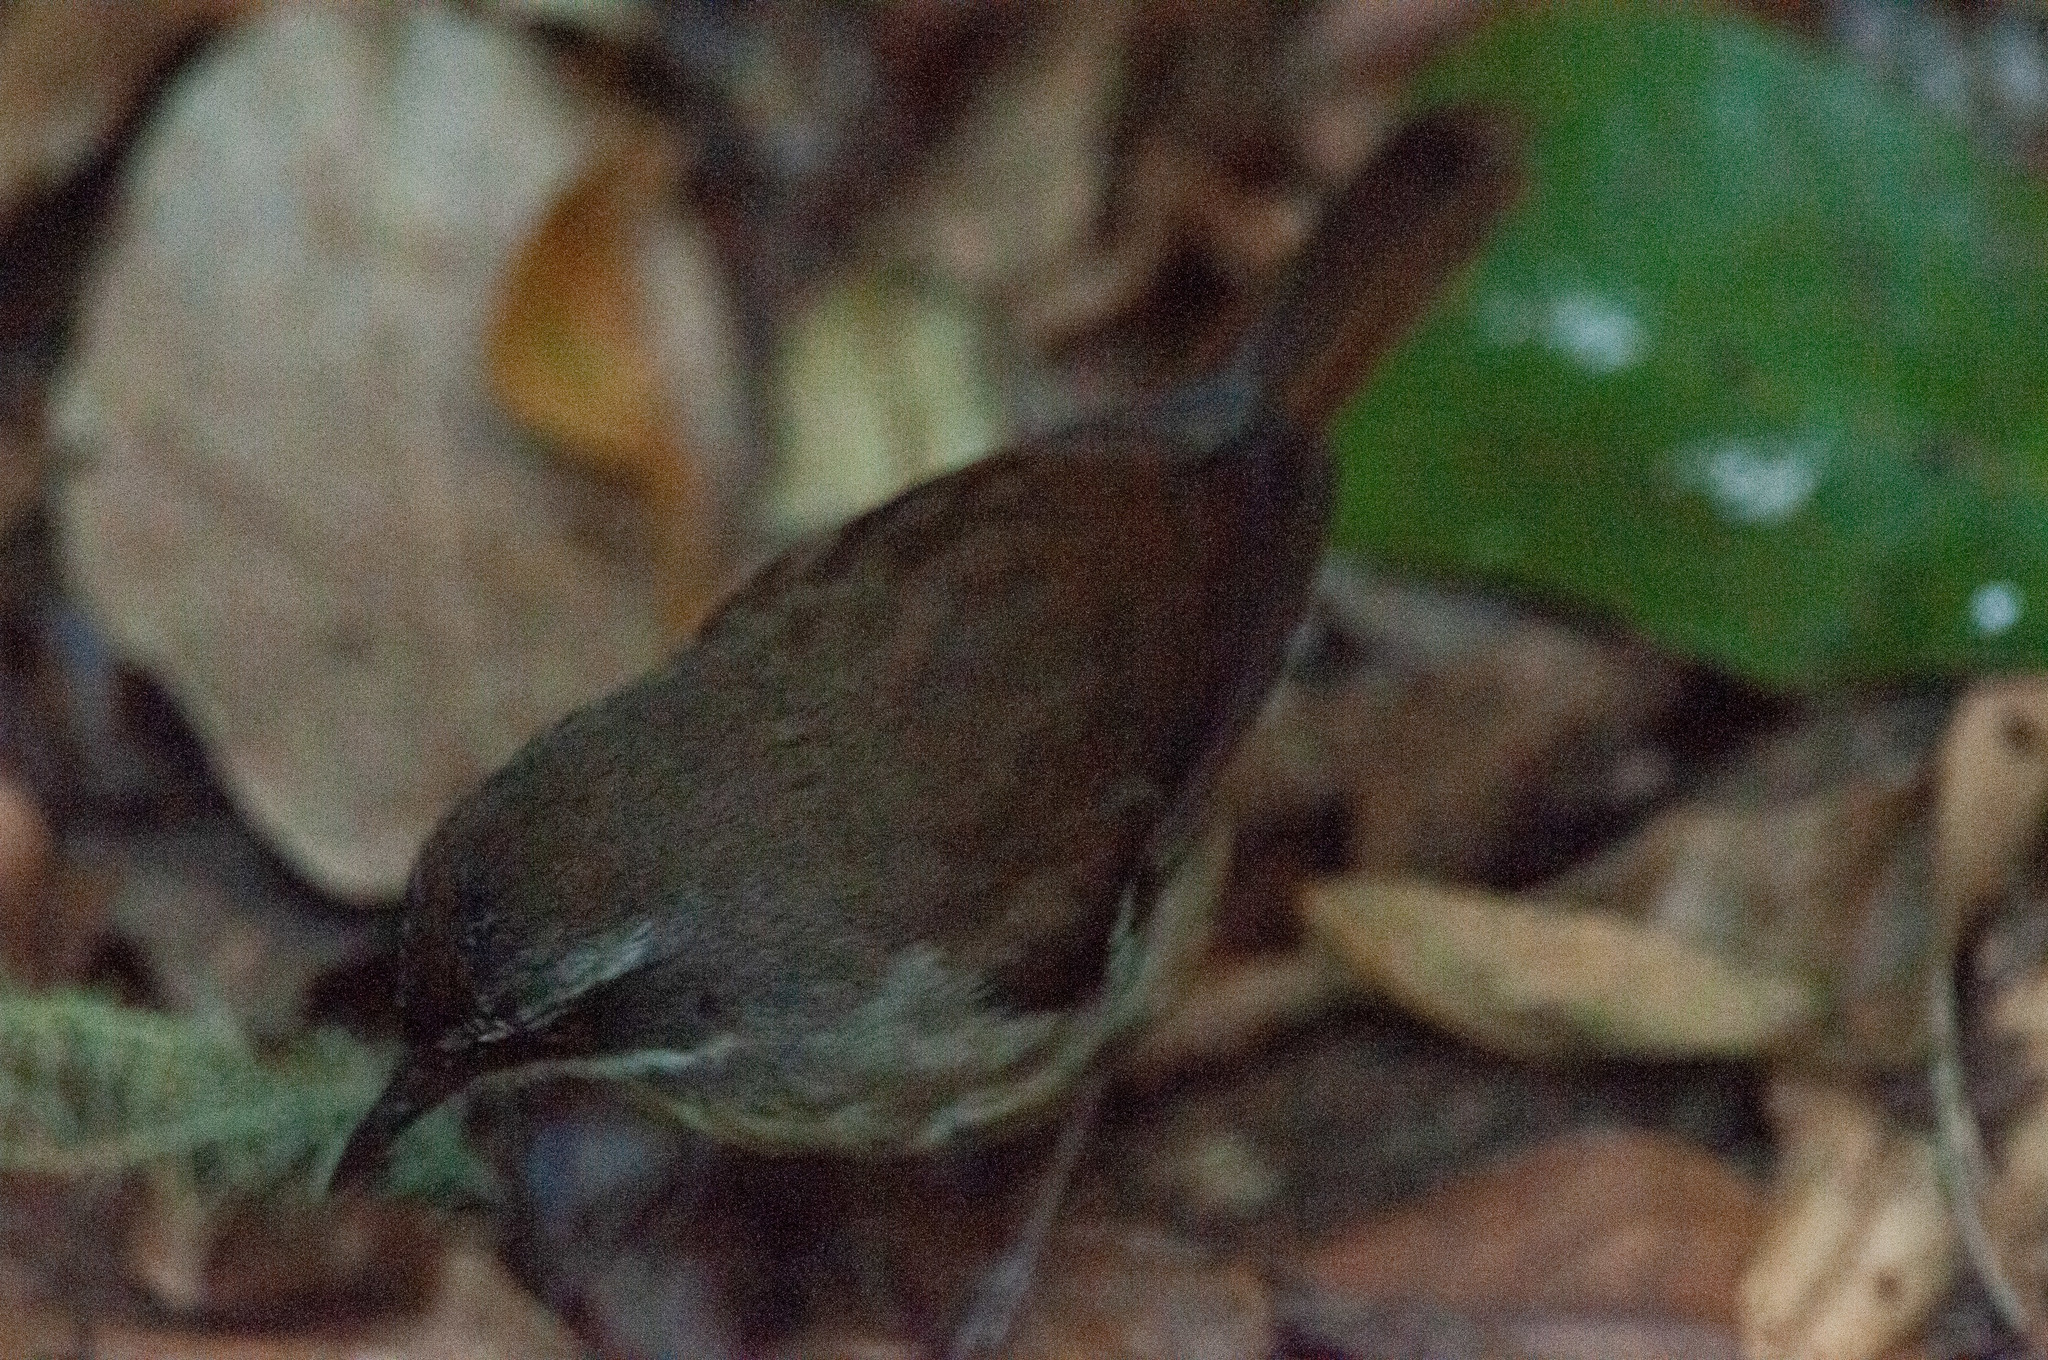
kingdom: Animalia
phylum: Chordata
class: Aves
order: Passeriformes
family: Acanthizidae
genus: Sericornis
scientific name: Sericornis frontalis
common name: White-browed scrubwren
